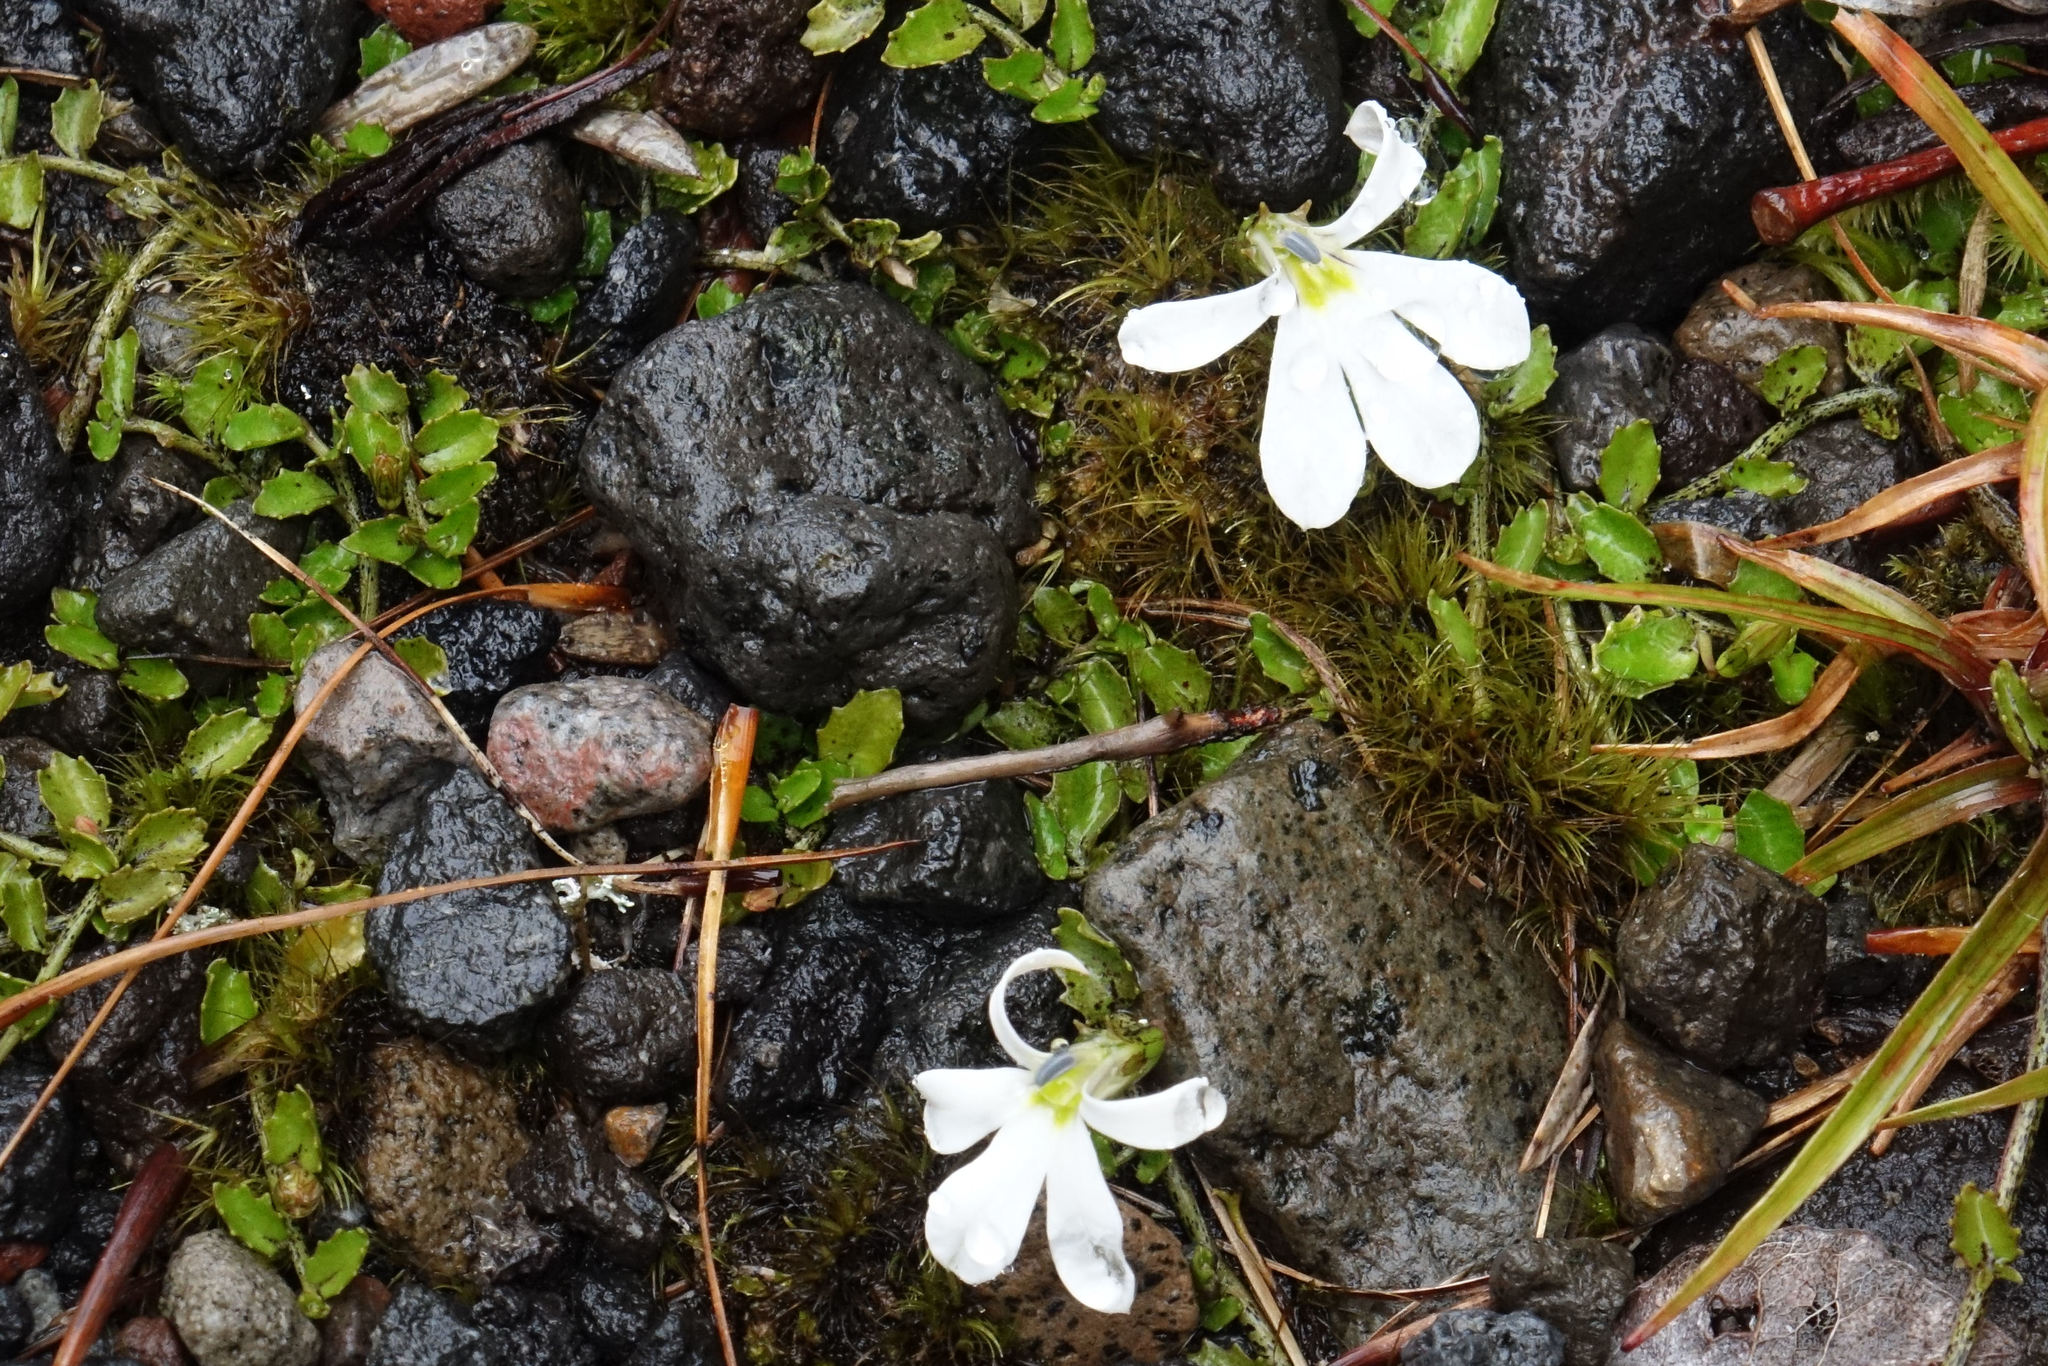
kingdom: Plantae
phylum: Tracheophyta
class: Magnoliopsida
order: Asterales
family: Campanulaceae
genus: Lobelia
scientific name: Lobelia angulata
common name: Lawn lobelia
